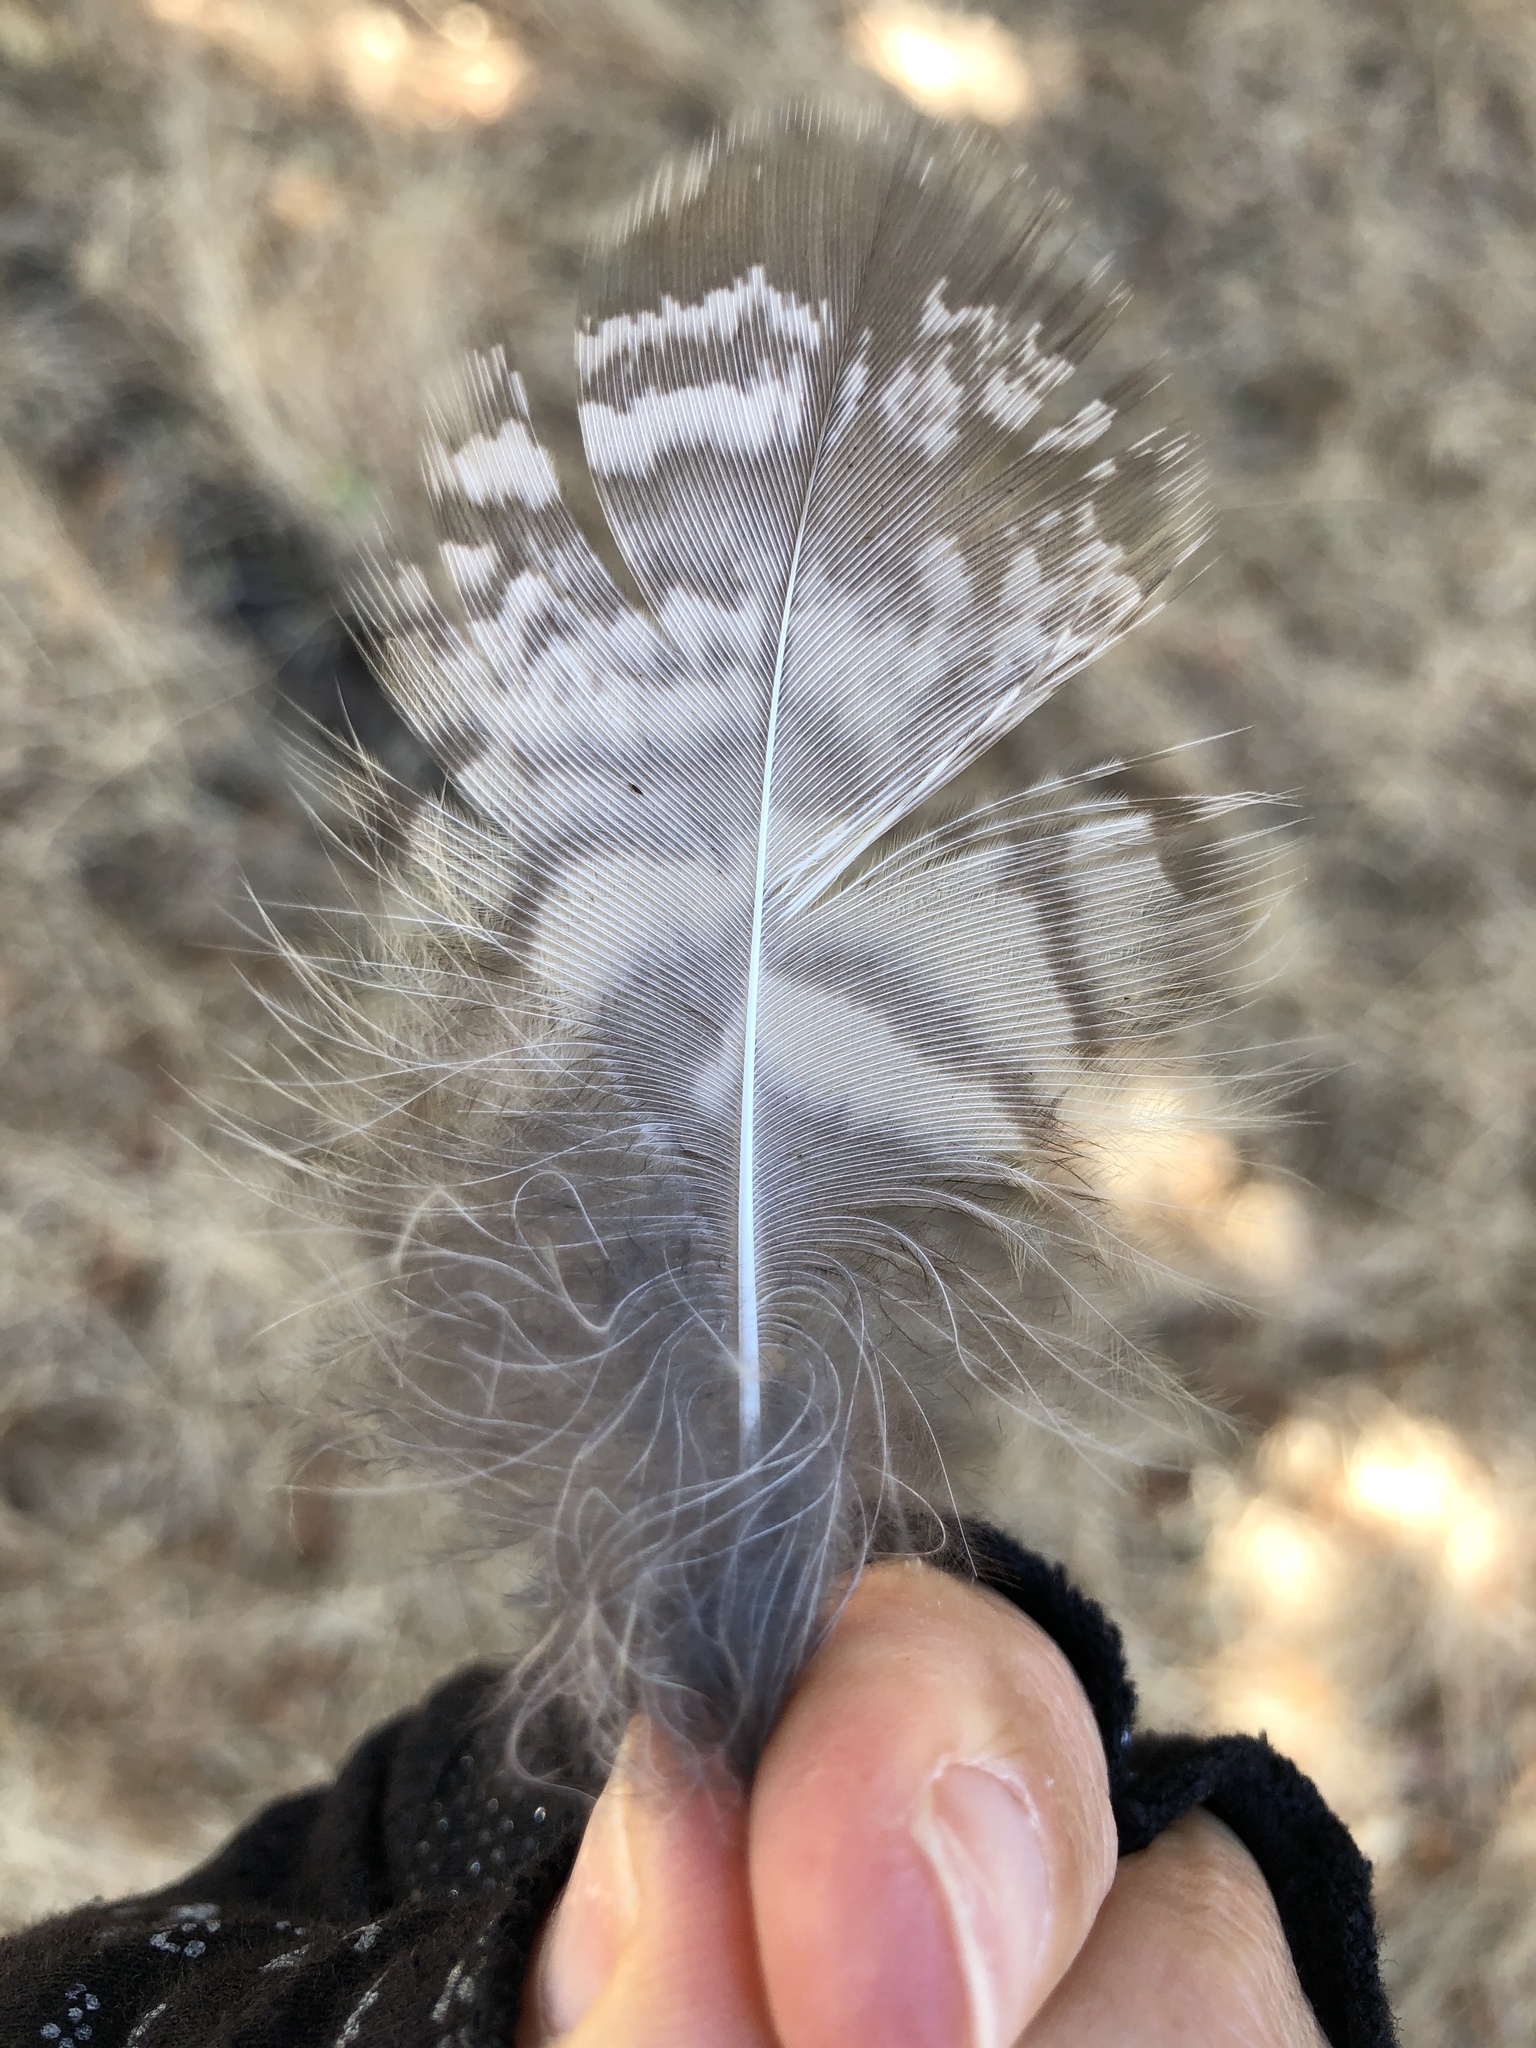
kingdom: Animalia
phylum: Chordata
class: Aves
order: Strigiformes
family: Strigidae
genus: Bubo
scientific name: Bubo virginianus
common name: Great horned owl
